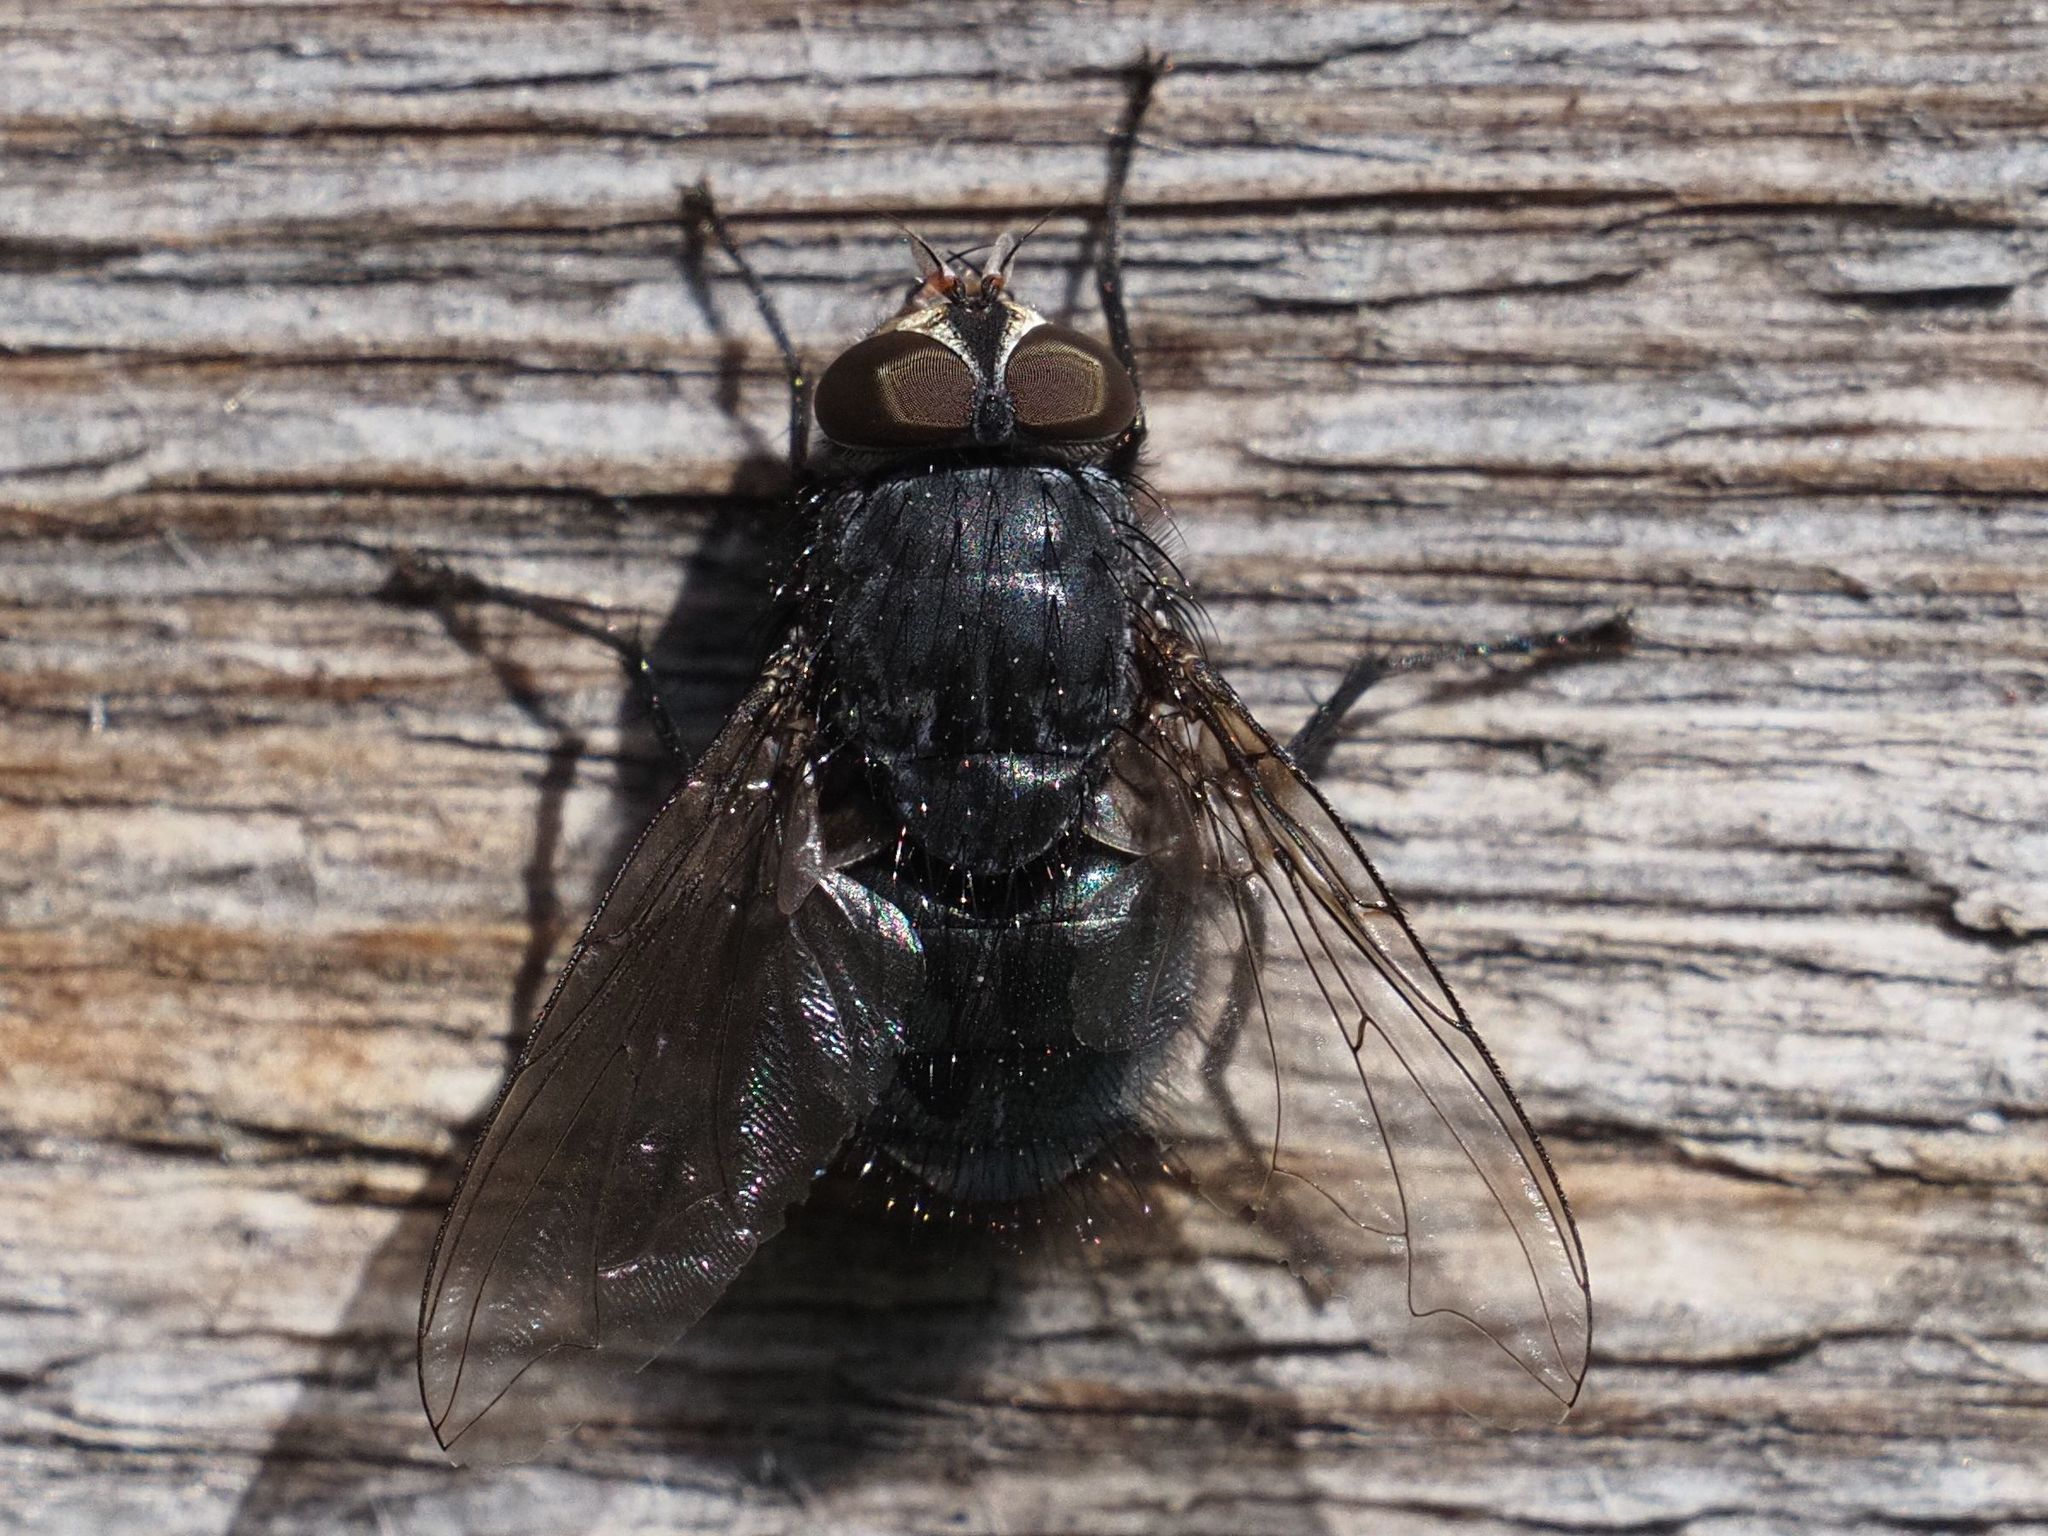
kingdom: Animalia
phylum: Arthropoda
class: Insecta
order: Diptera
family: Calliphoridae
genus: Calliphora
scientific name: Calliphora vicina
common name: Common blow flie
